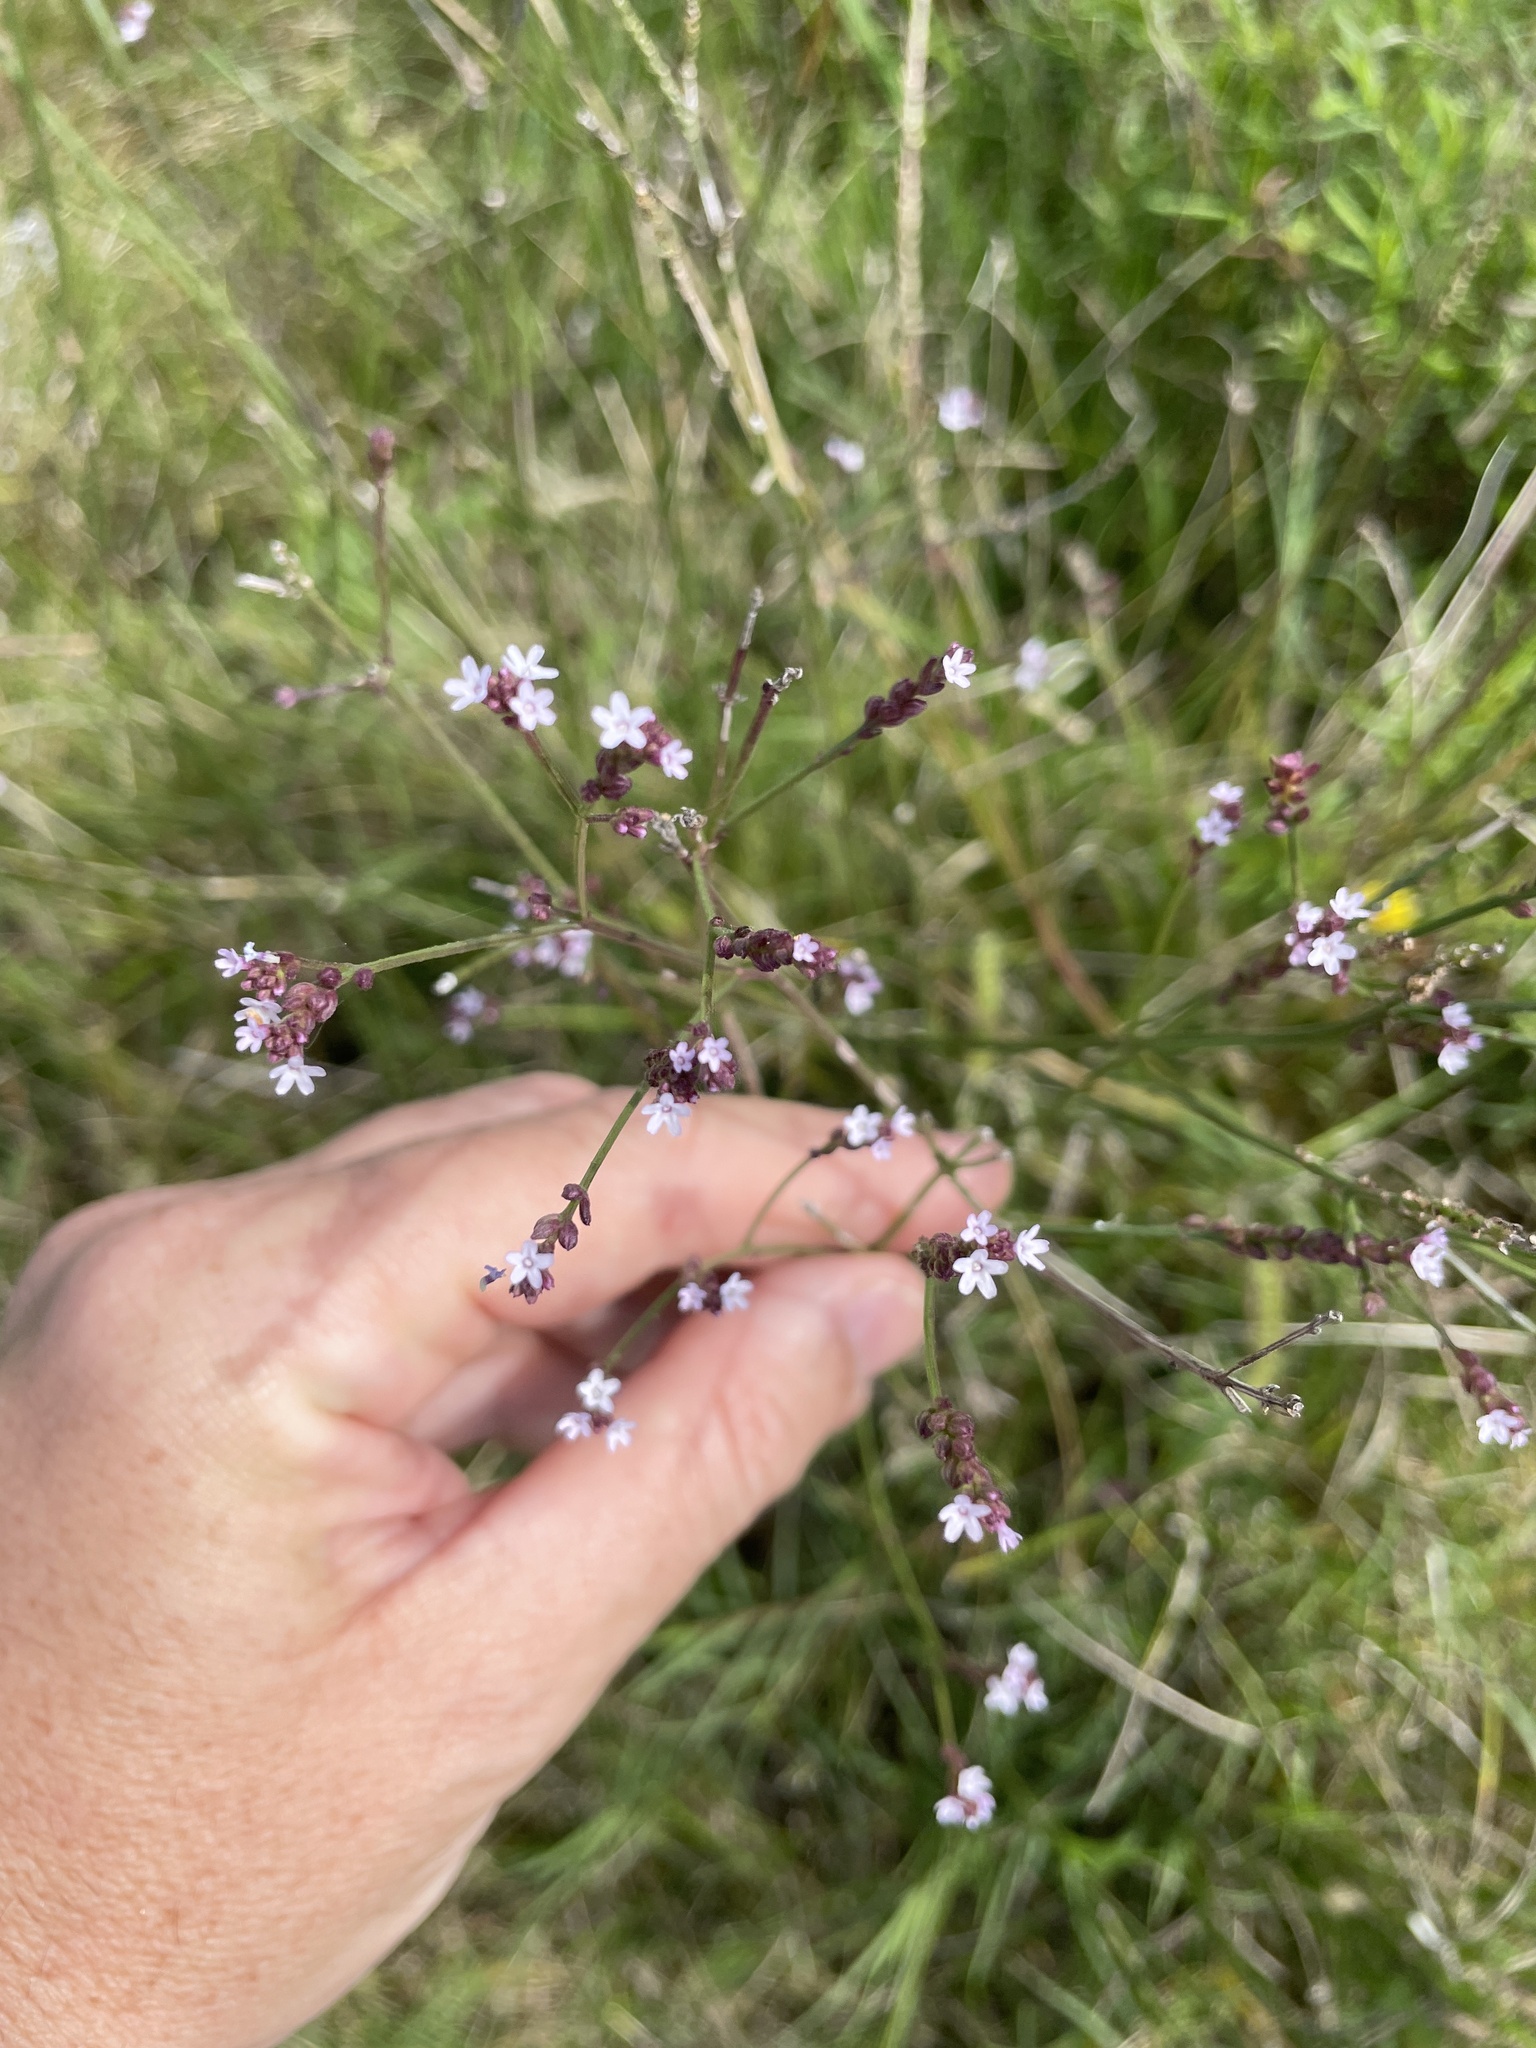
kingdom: Plantae
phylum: Tracheophyta
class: Magnoliopsida
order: Lamiales
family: Verbenaceae
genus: Verbena
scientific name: Verbena montevidensis
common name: Uruguayan vervain
